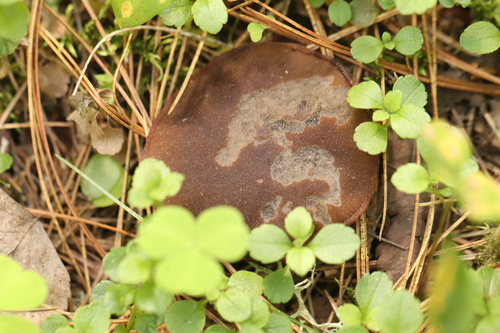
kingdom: Fungi
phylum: Ascomycota
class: Pezizomycetes
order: Pezizales
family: Sarcosomataceae
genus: Sarcosoma
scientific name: Sarcosoma globosum
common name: Charred-pancake cup
